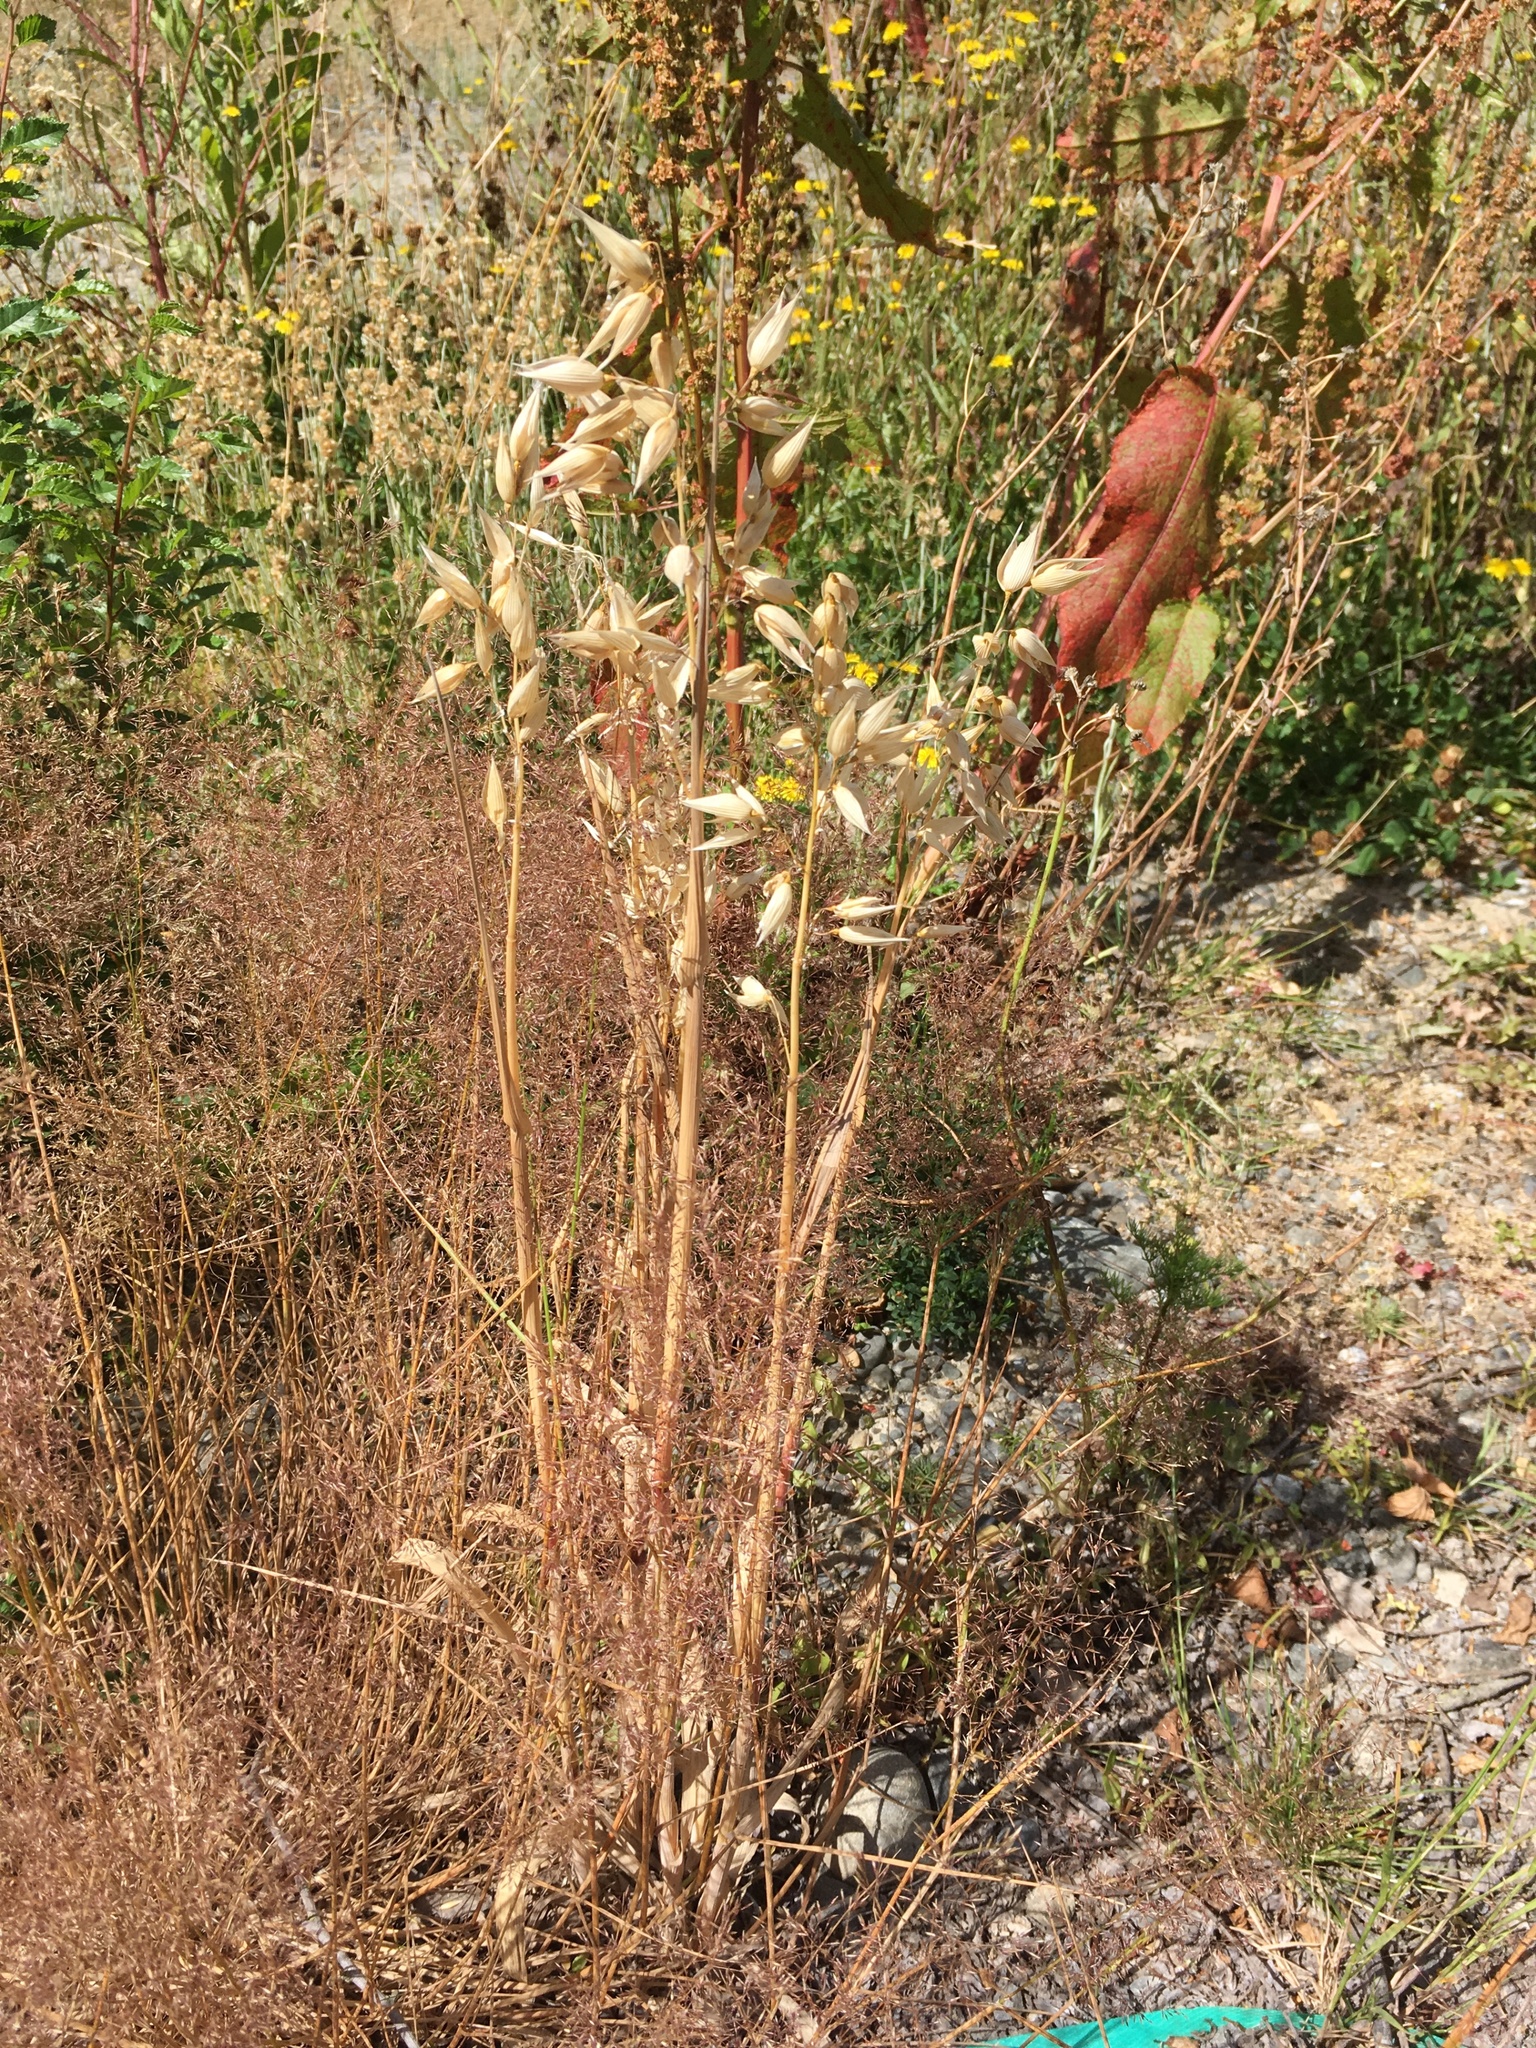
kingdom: Plantae
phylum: Tracheophyta
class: Liliopsida
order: Poales
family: Poaceae
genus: Avena
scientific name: Avena sativa
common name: Oat
